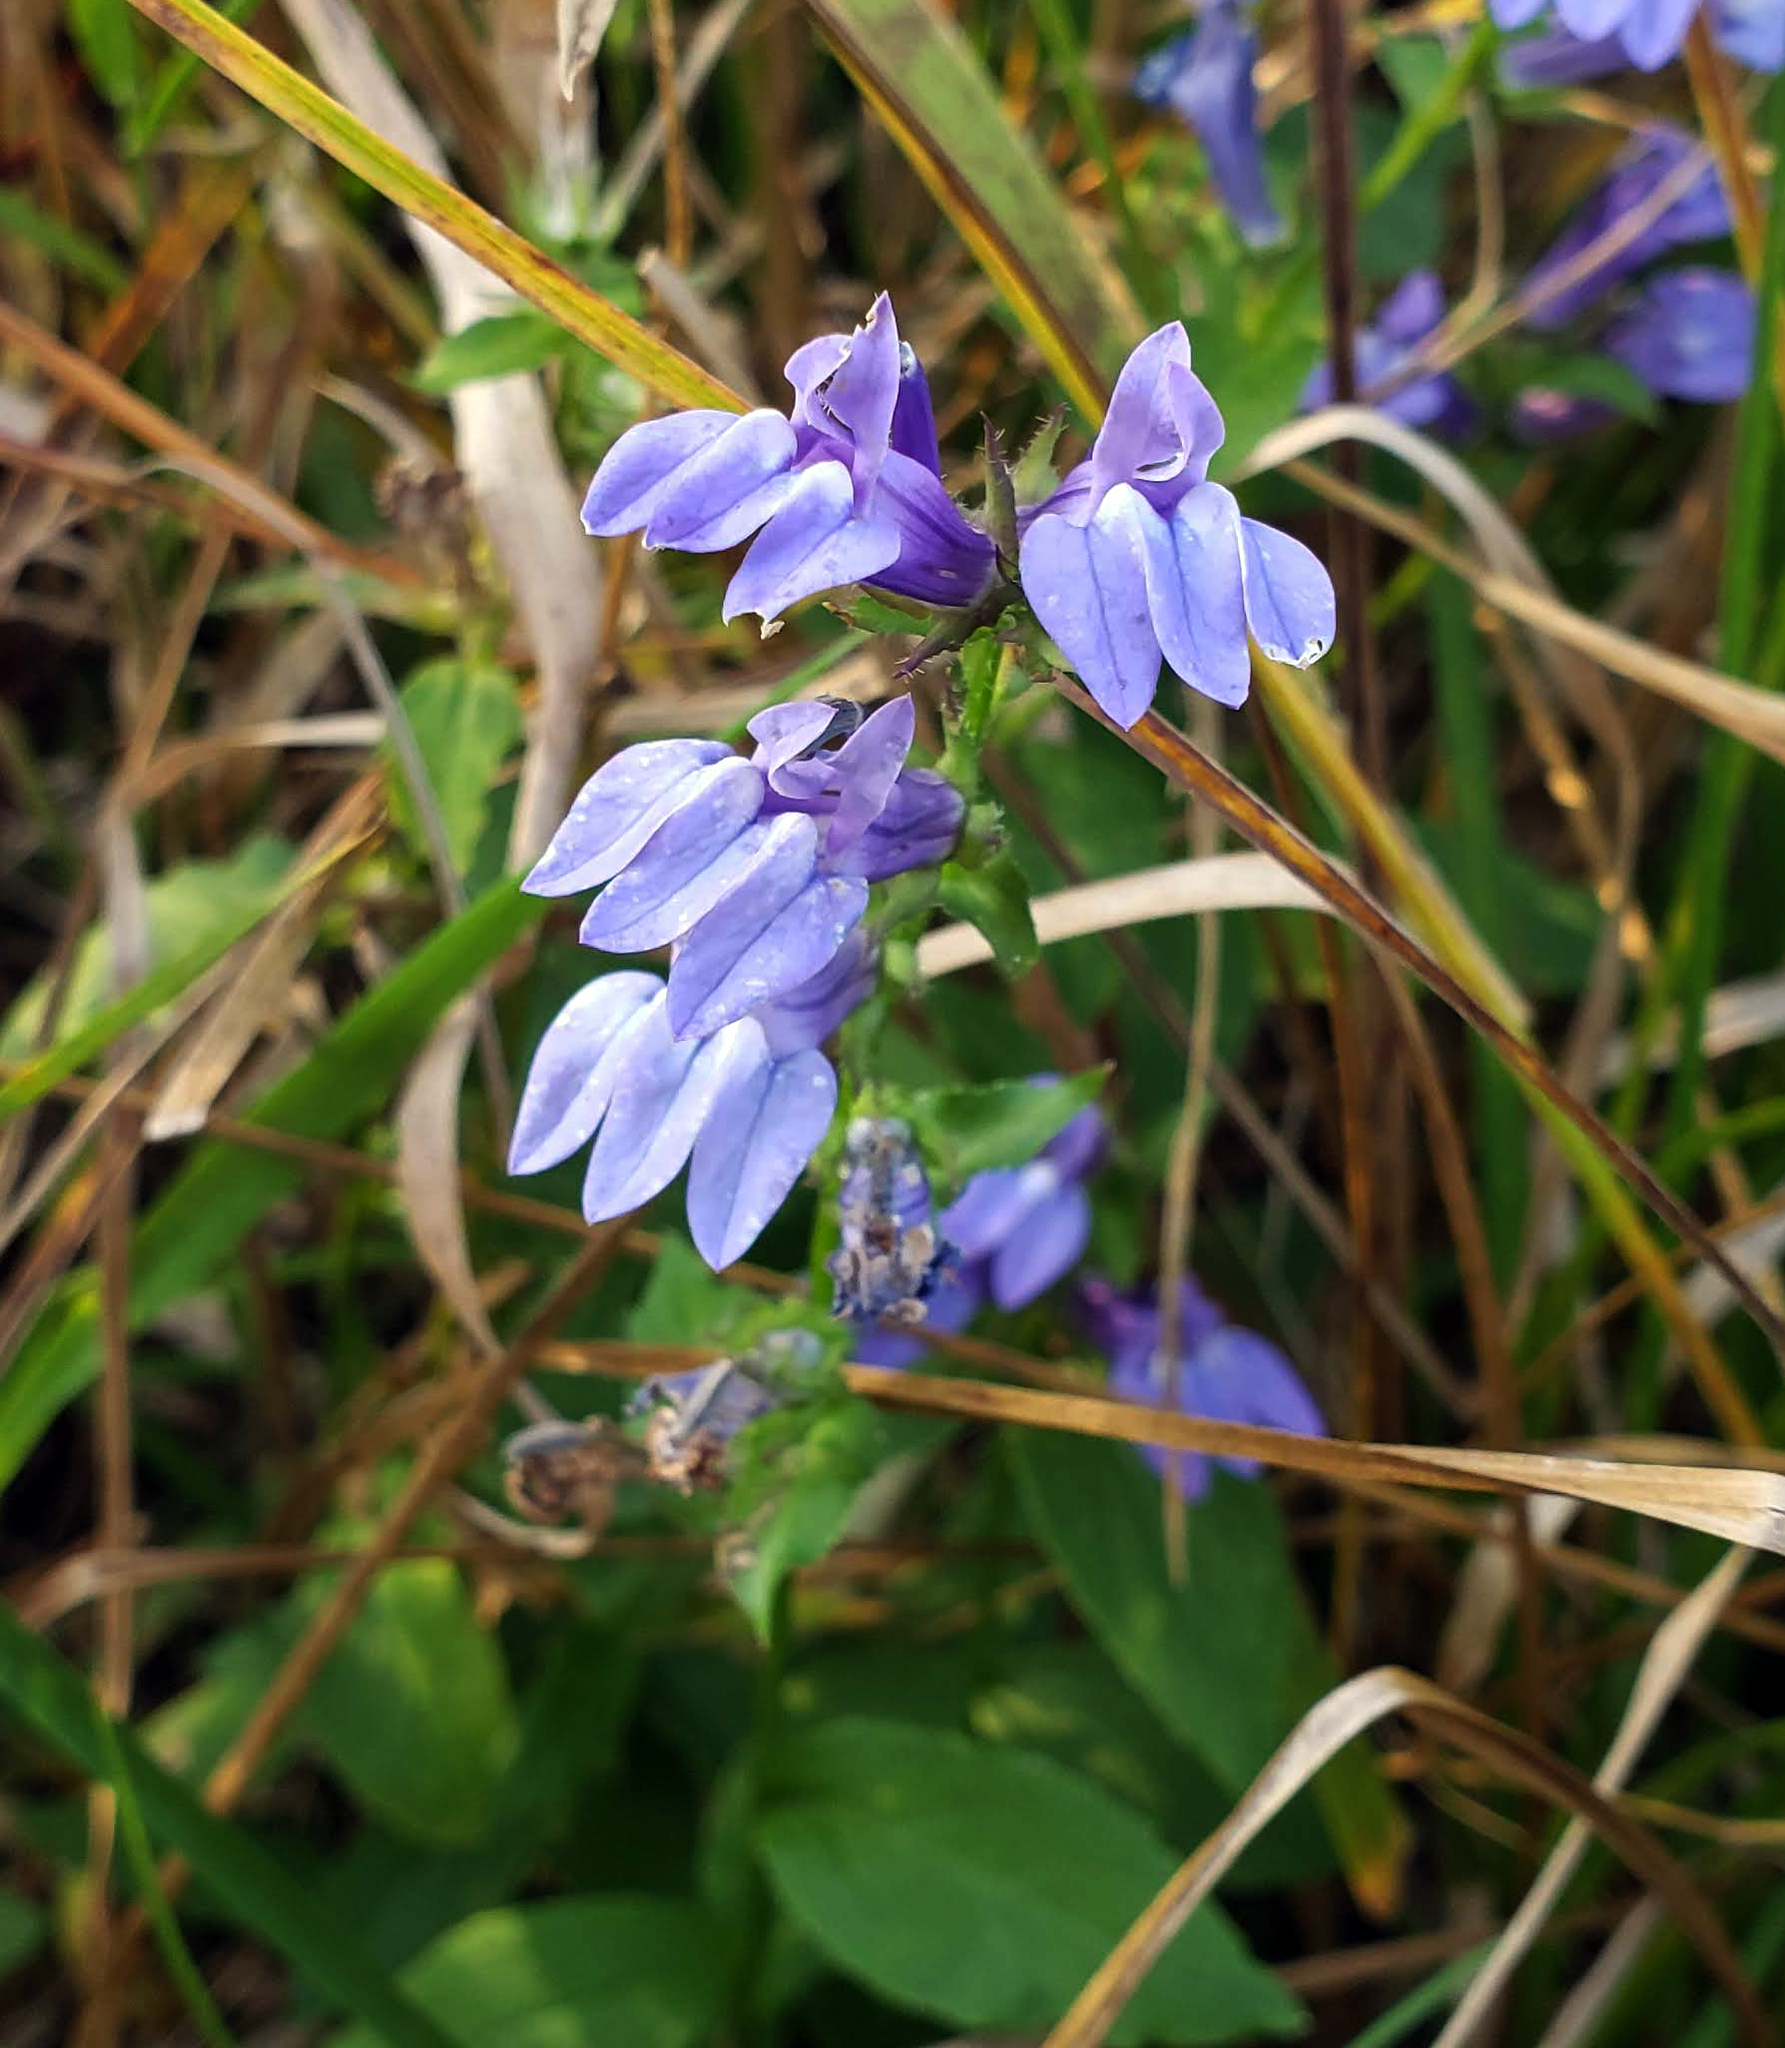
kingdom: Plantae
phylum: Tracheophyta
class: Magnoliopsida
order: Asterales
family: Campanulaceae
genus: Lobelia
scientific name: Lobelia siphilitica
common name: Great lobelia
